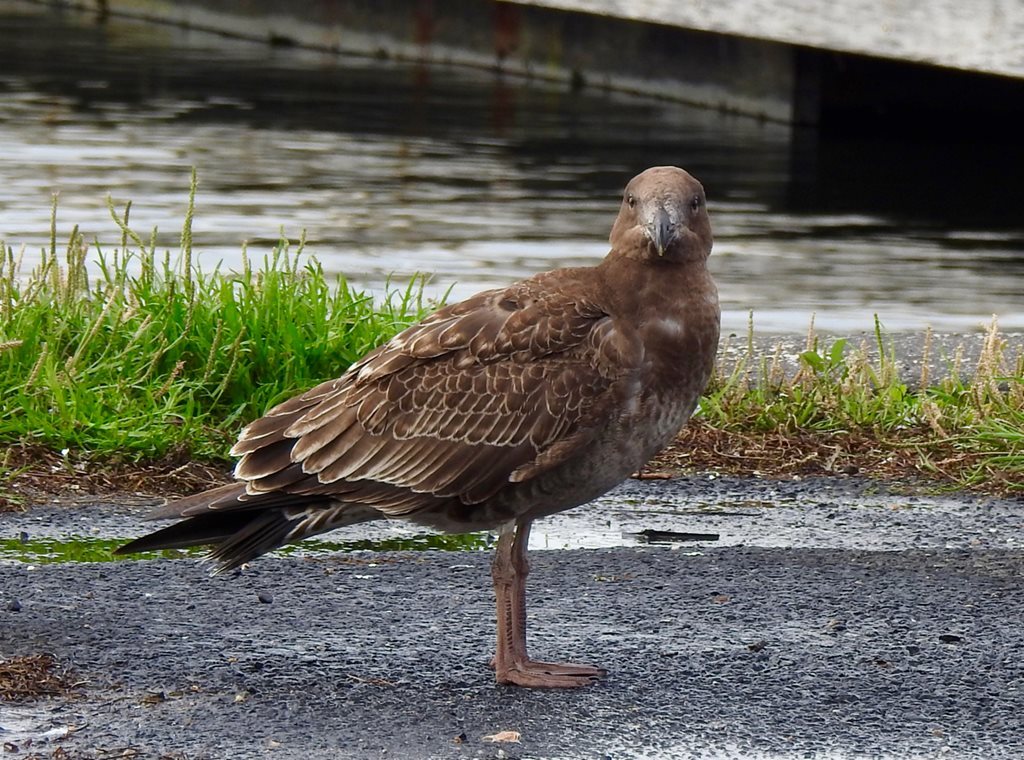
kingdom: Animalia
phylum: Chordata
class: Aves
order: Charadriiformes
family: Laridae
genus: Larus
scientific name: Larus pacificus
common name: Pacific gull
